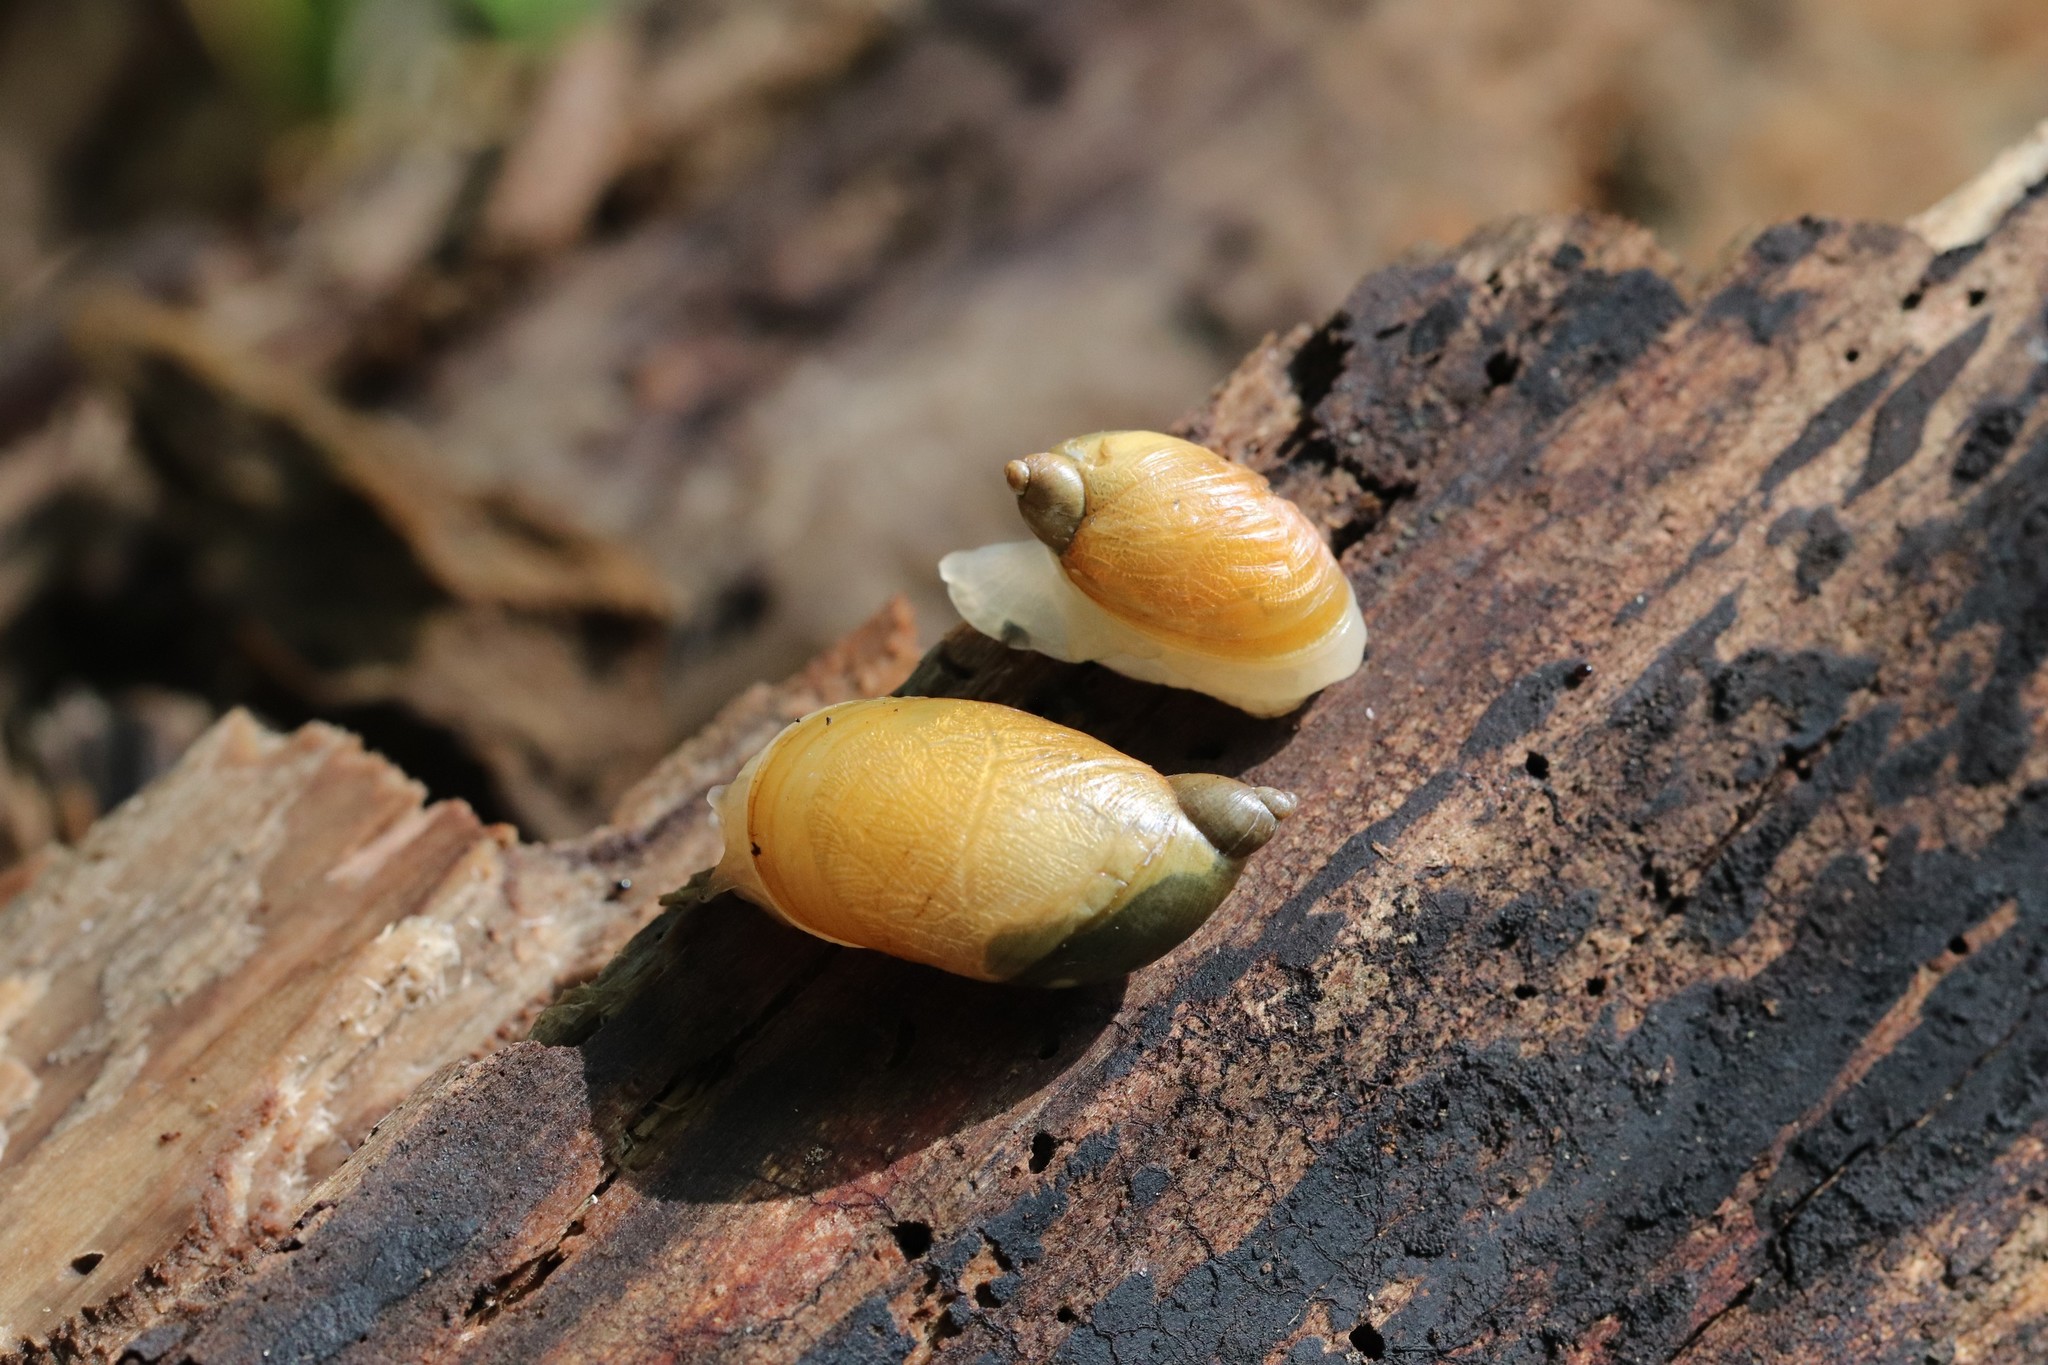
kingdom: Animalia
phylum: Mollusca
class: Gastropoda
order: Stylommatophora
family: Succineidae
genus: Succinea
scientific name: Succinea lauta
